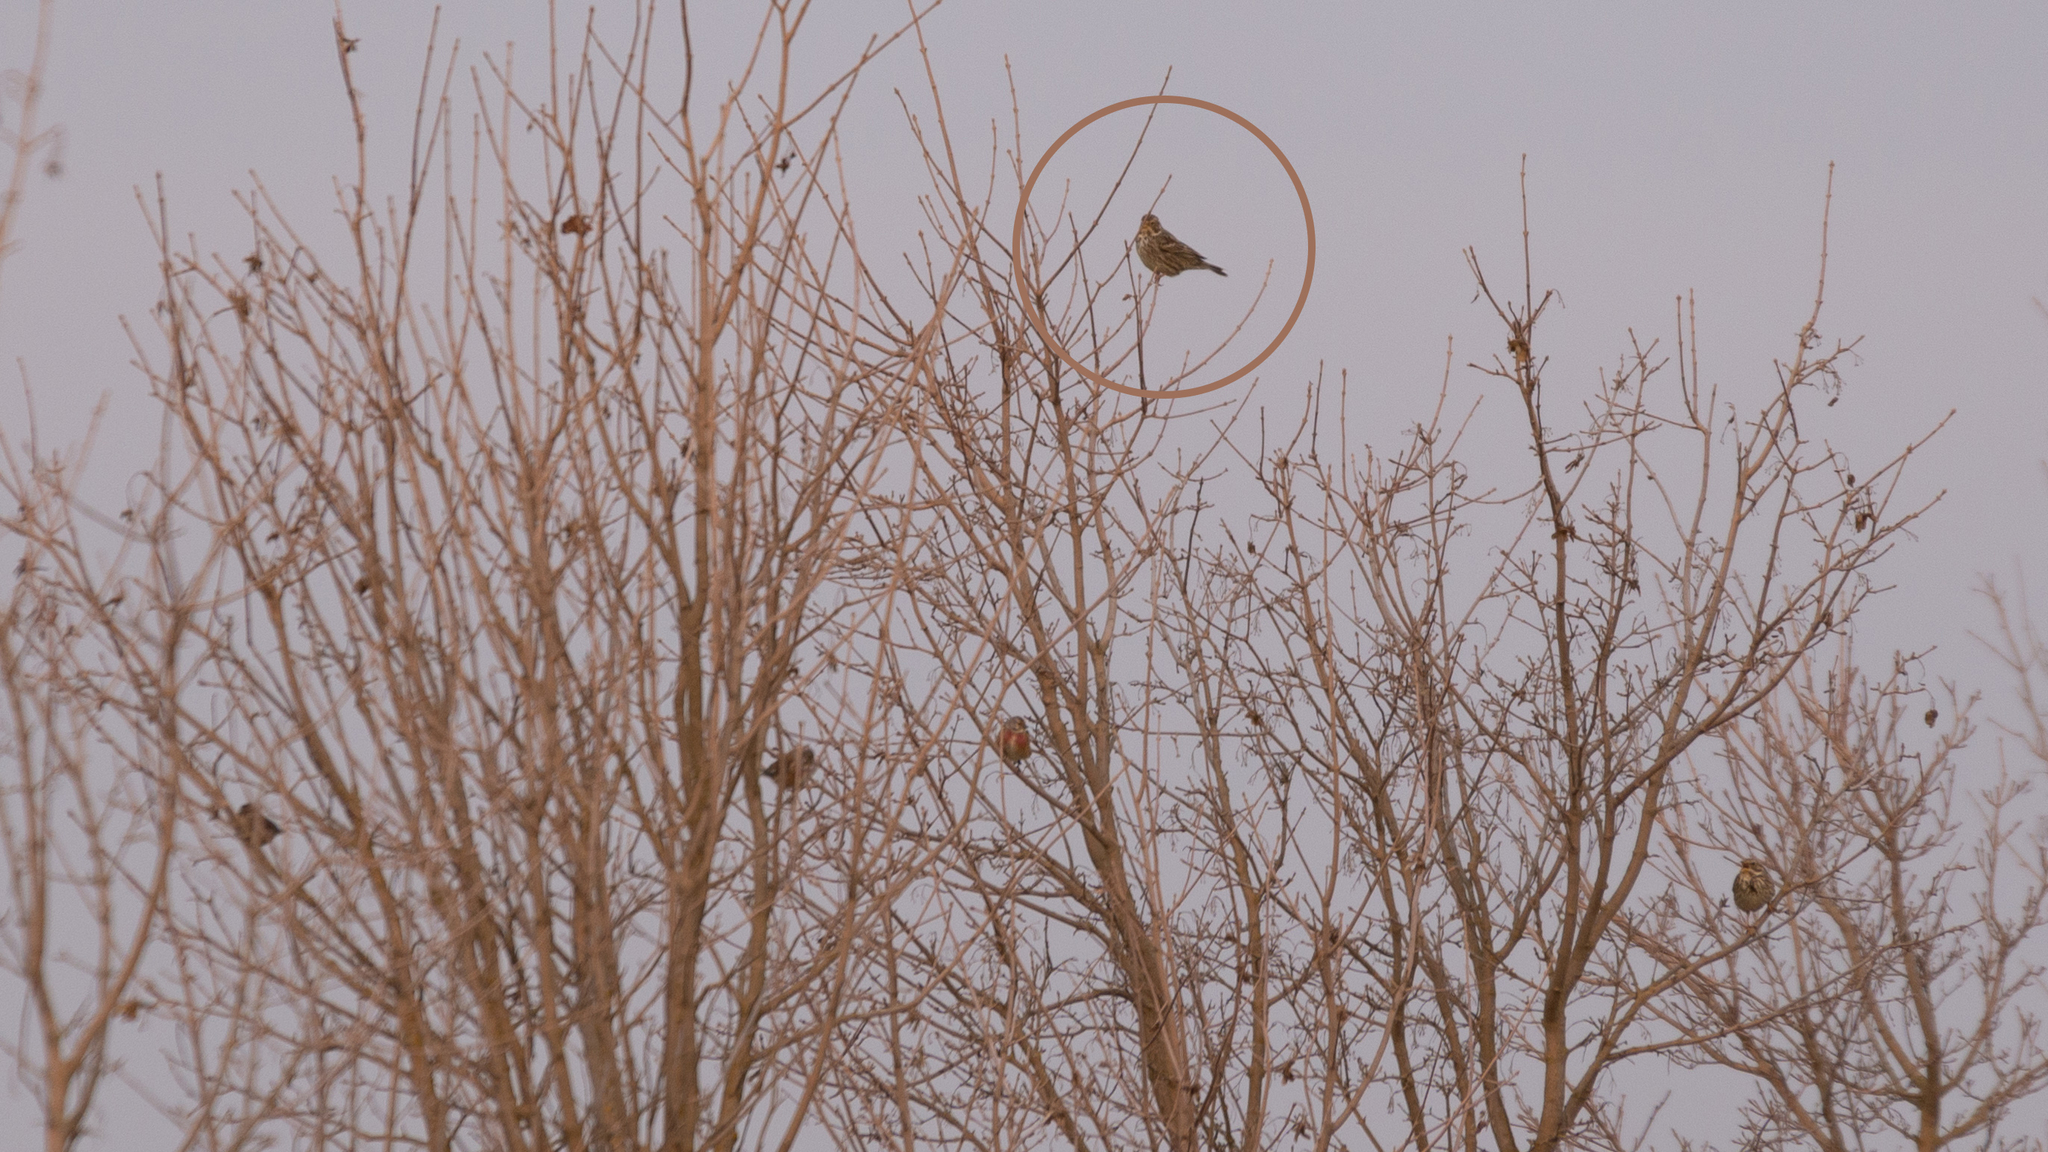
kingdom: Animalia
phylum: Chordata
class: Aves
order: Passeriformes
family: Emberizidae
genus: Emberiza
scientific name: Emberiza calandra
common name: Corn bunting
